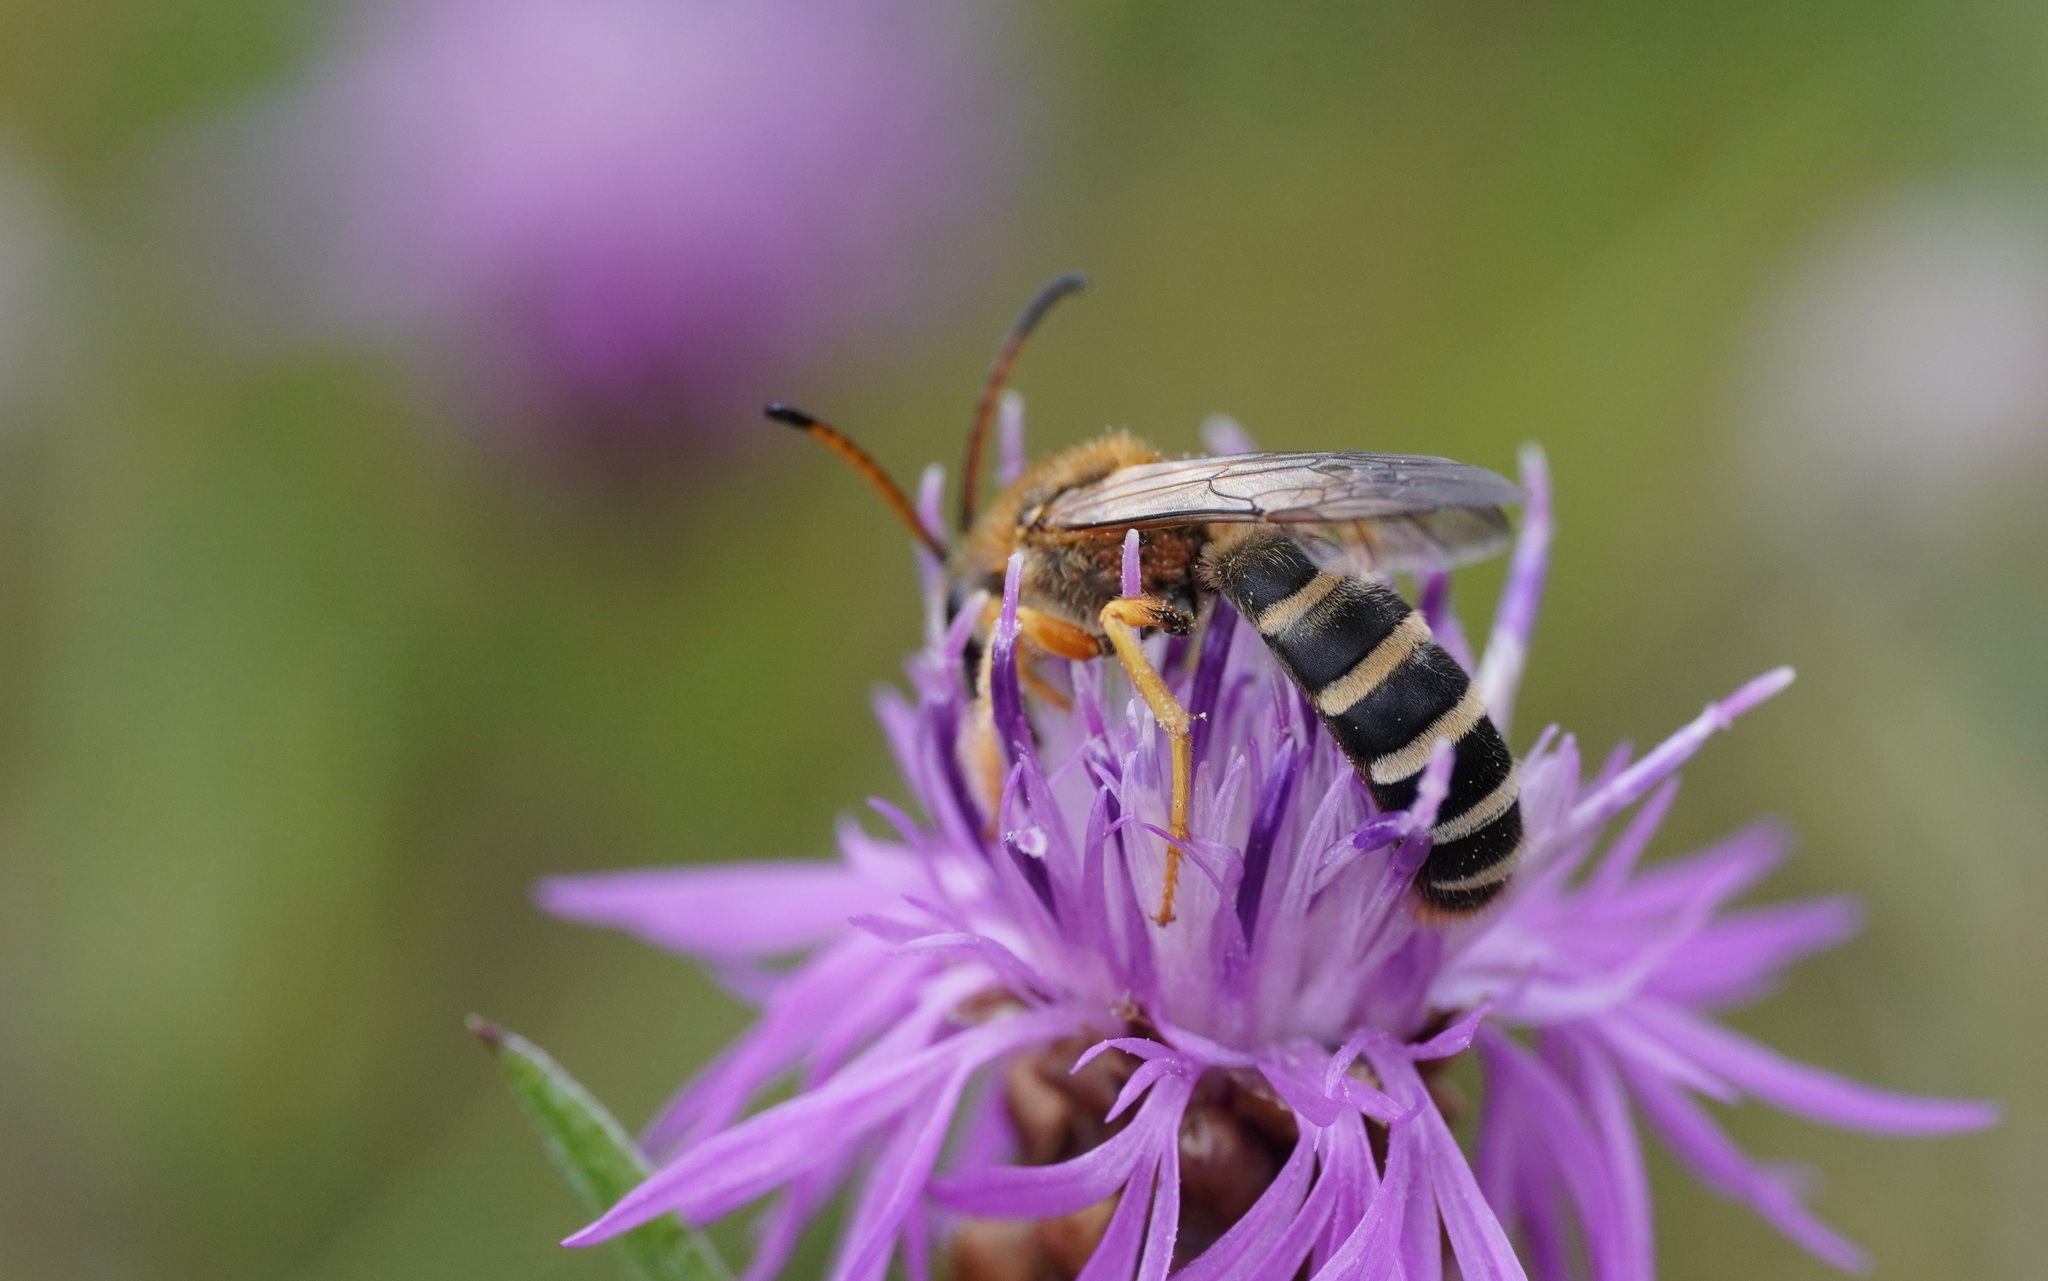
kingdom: Animalia
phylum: Arthropoda
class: Insecta
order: Hymenoptera
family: Halictidae
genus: Halictus
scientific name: Halictus sexcinctus
